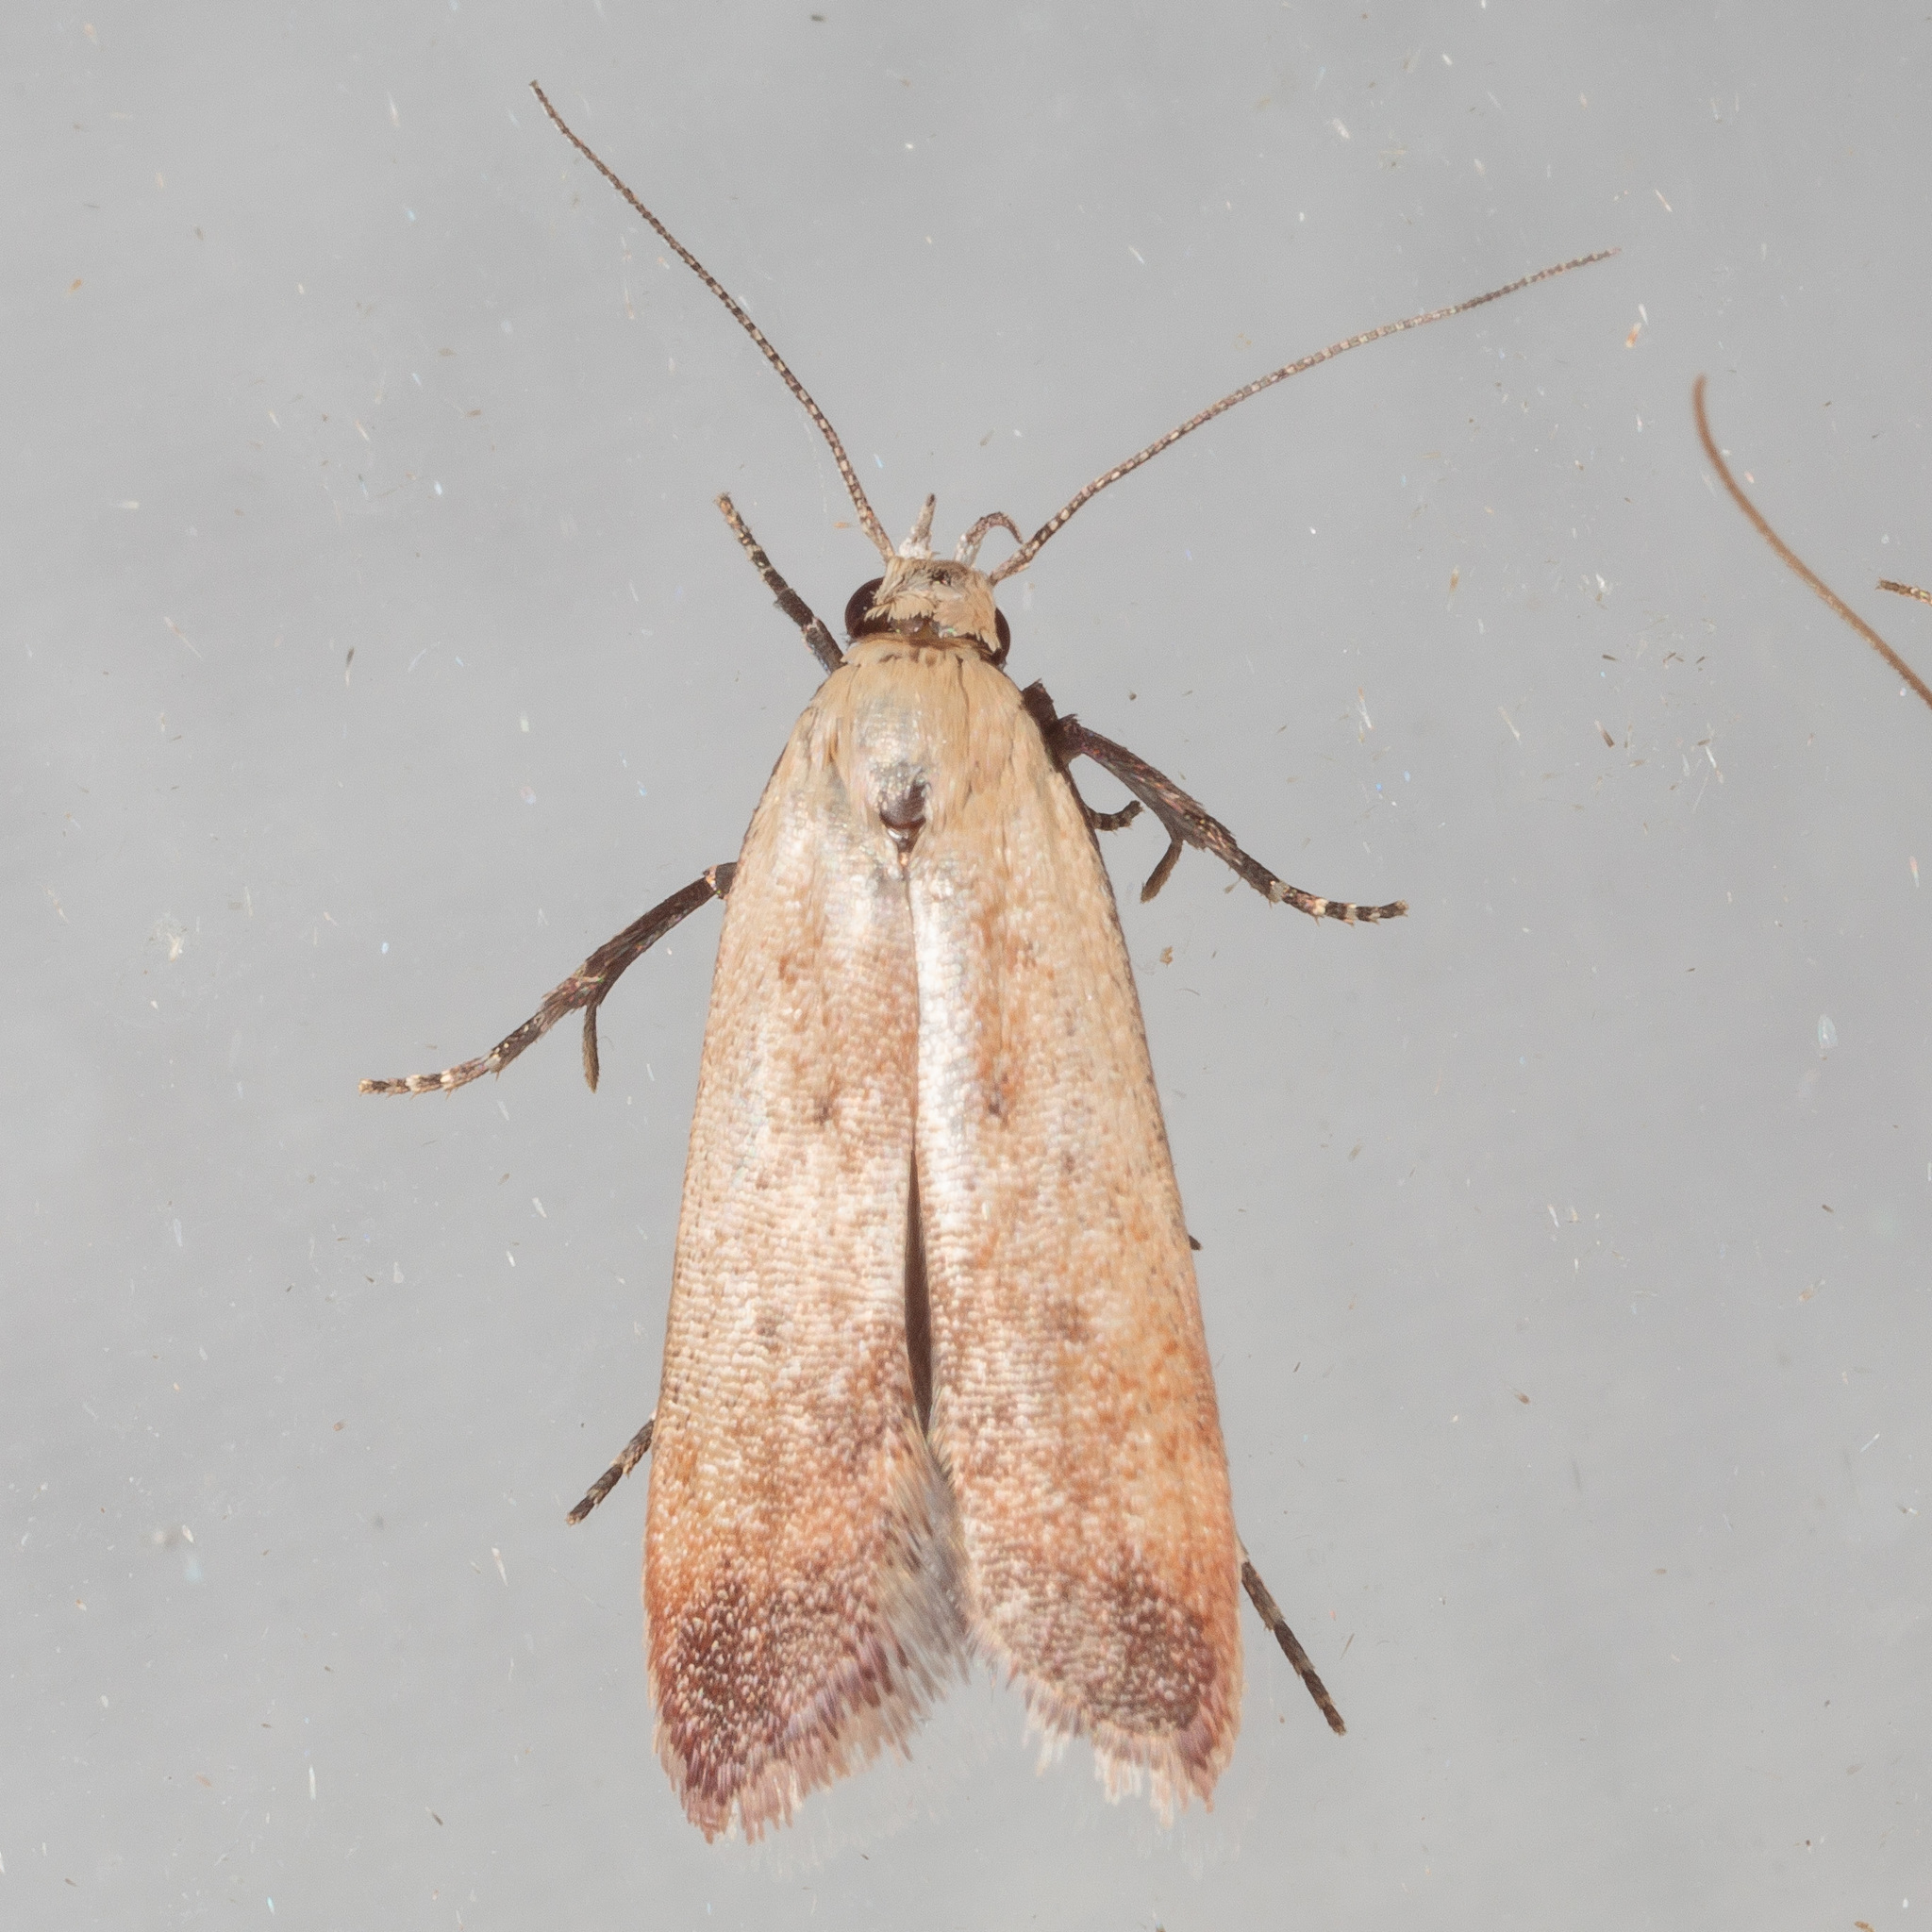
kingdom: Animalia
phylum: Arthropoda
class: Insecta
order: Lepidoptera
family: Gelechiidae
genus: Anacampsis
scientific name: Anacampsis fullonella
